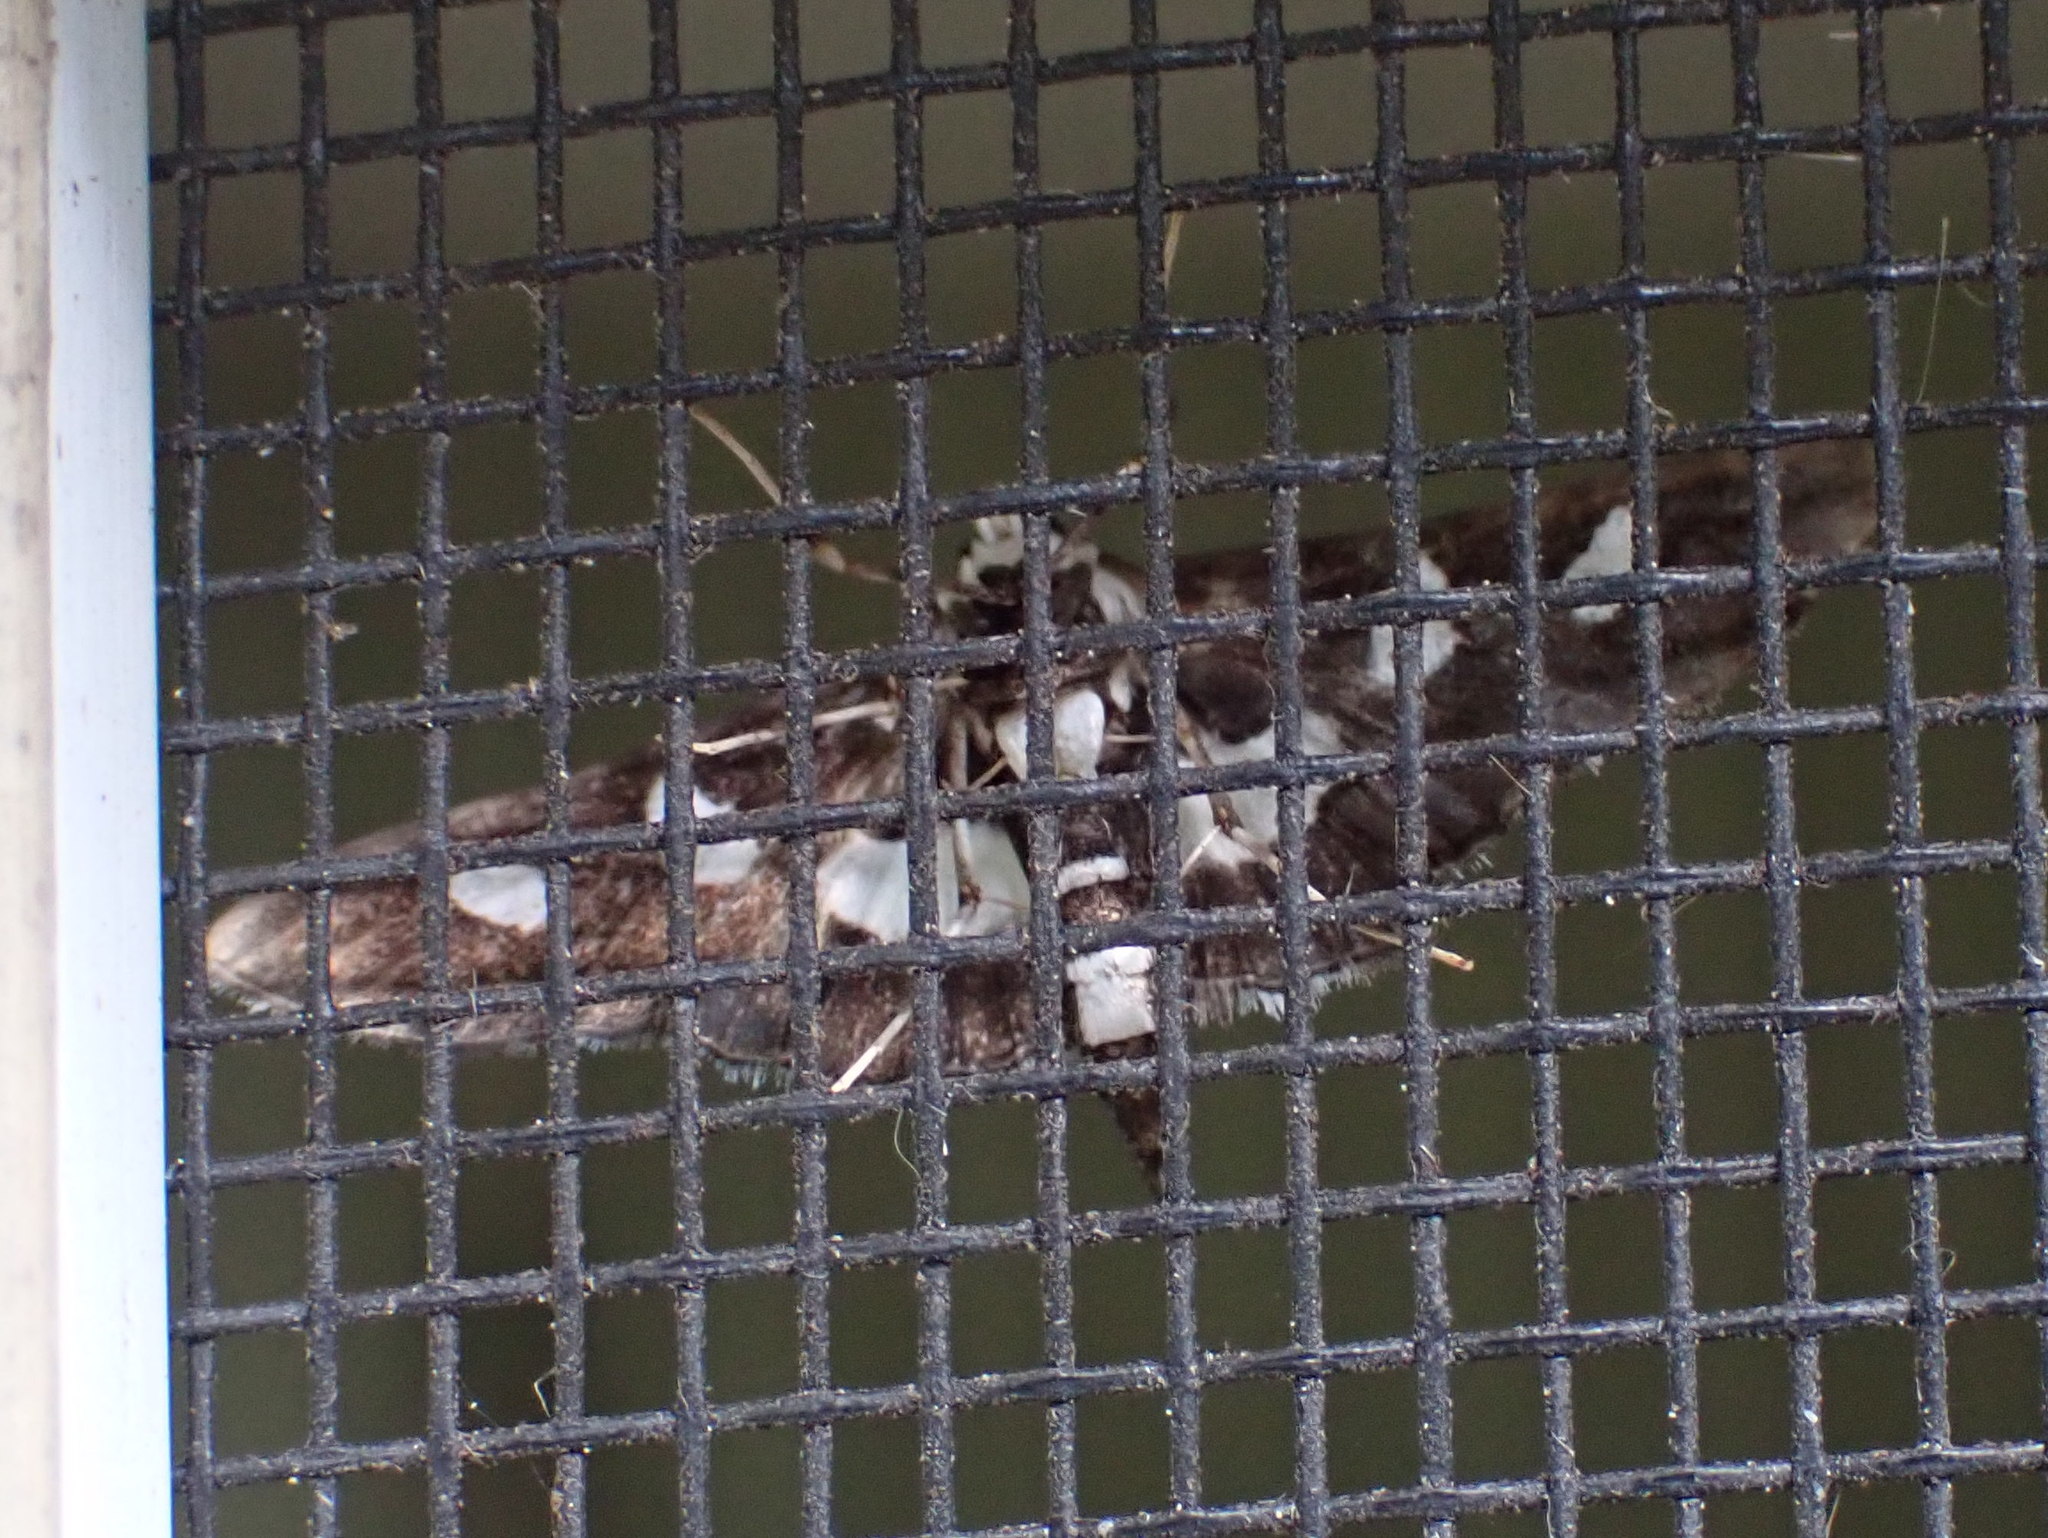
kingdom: Animalia
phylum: Arthropoda
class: Insecta
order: Lepidoptera
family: Crambidae
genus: Desmia
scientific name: Desmia funeralis
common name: Grape leaf folder moth
